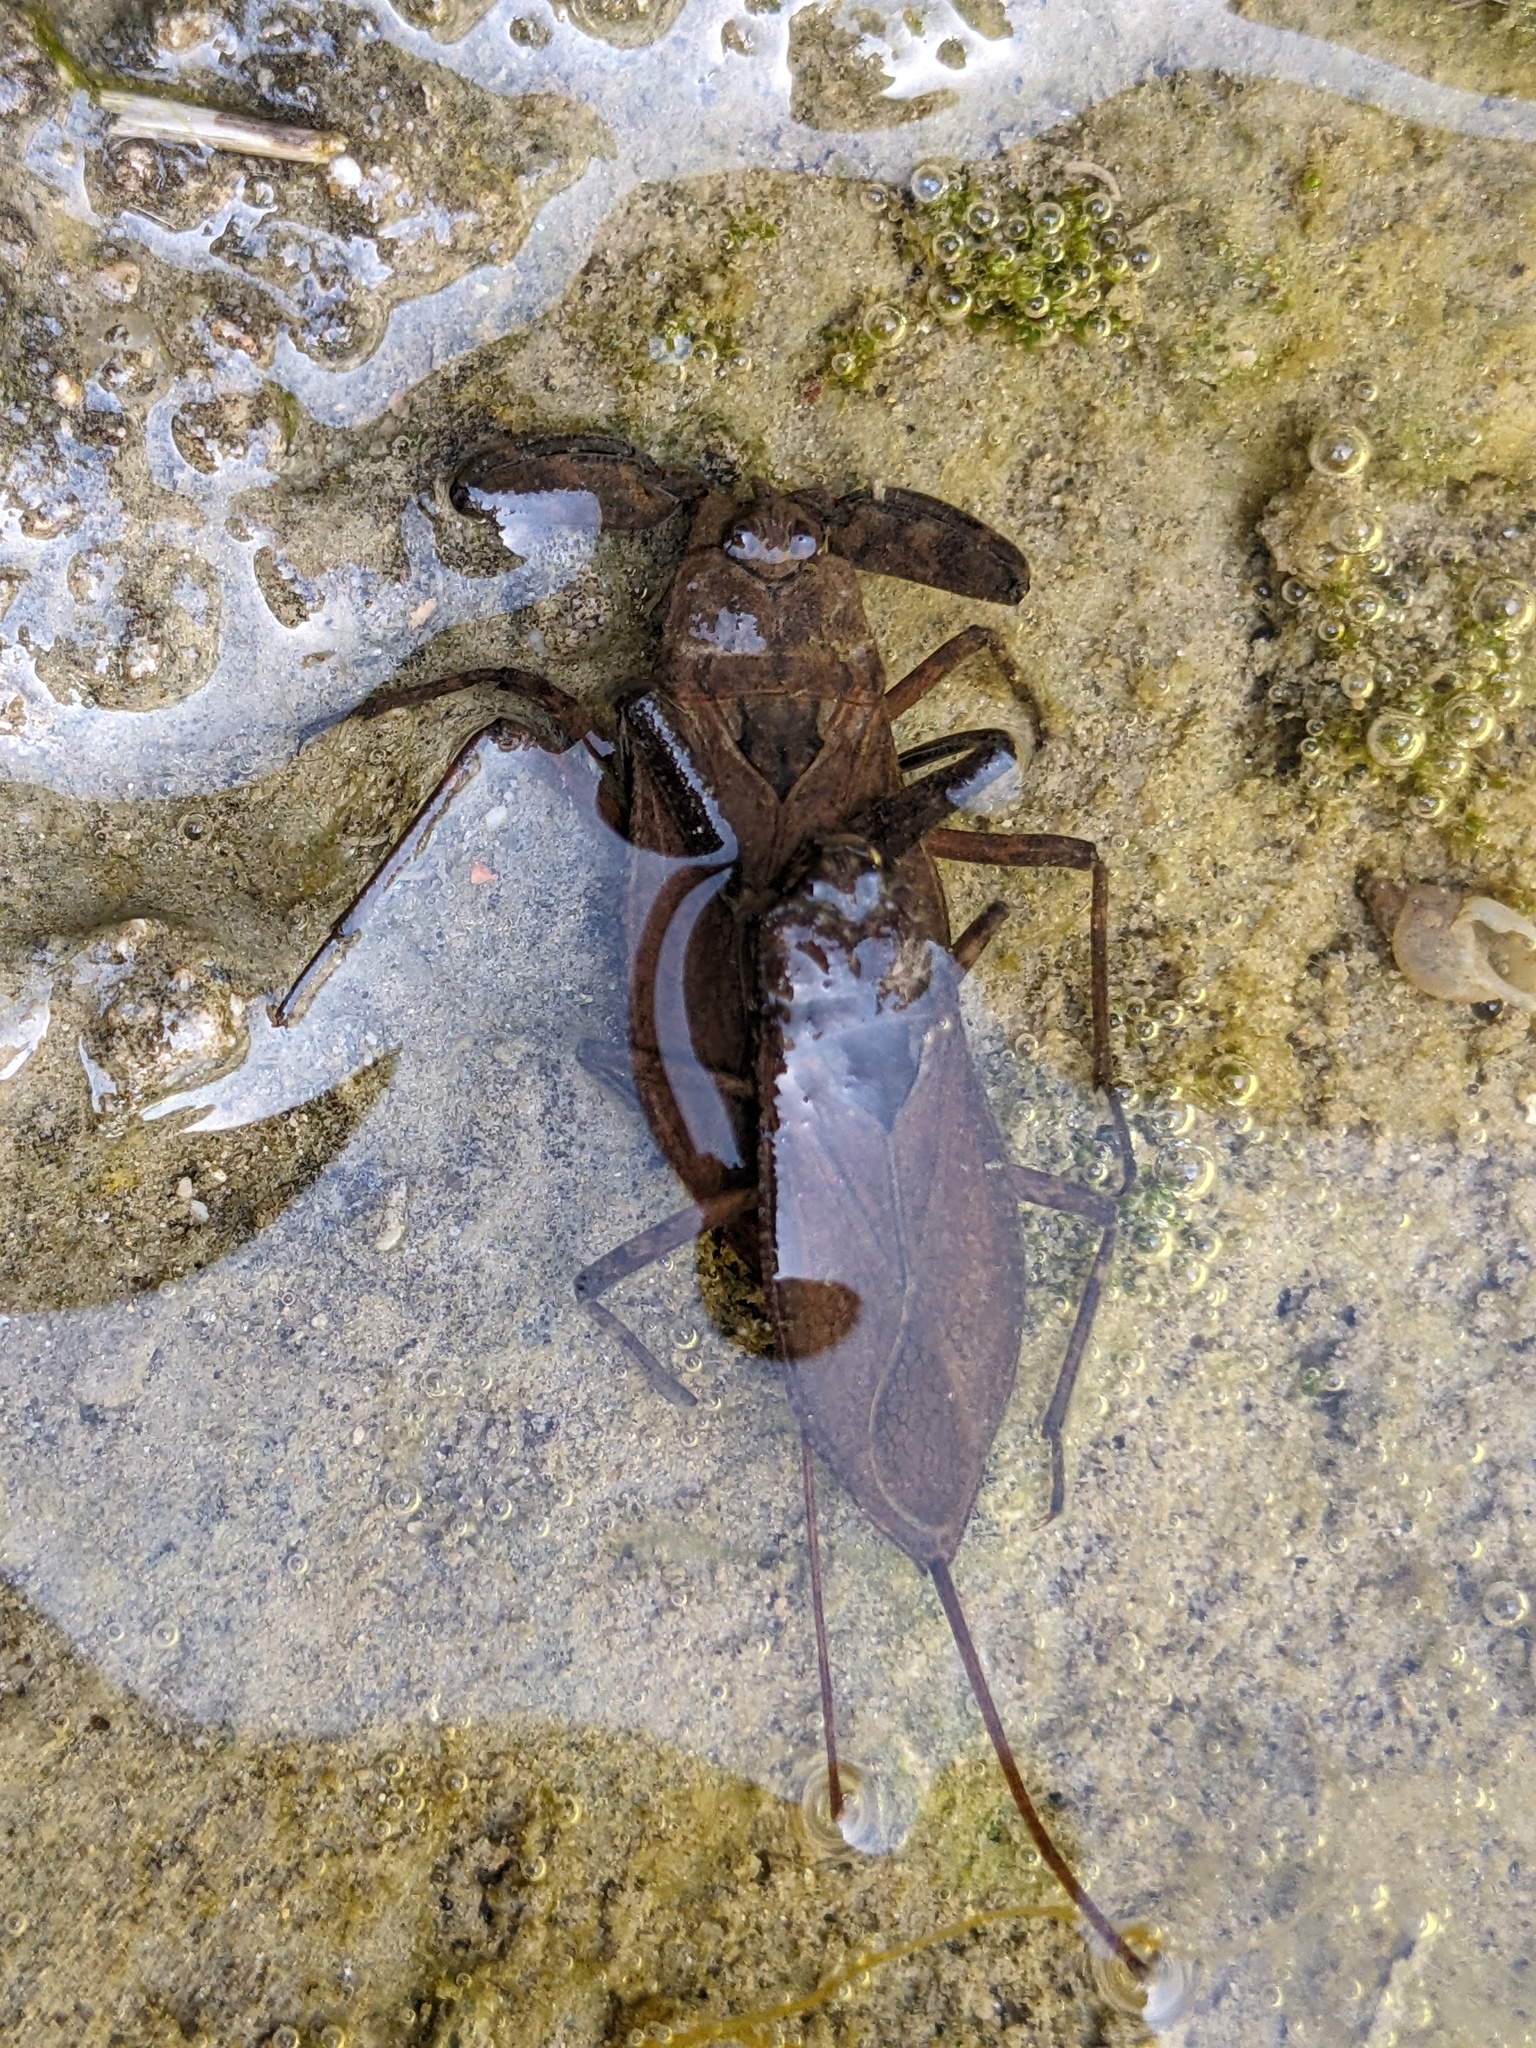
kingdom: Animalia
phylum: Arthropoda
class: Insecta
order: Hemiptera
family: Nepidae
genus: Nepa
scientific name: Nepa cinerea
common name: Water scorpion
